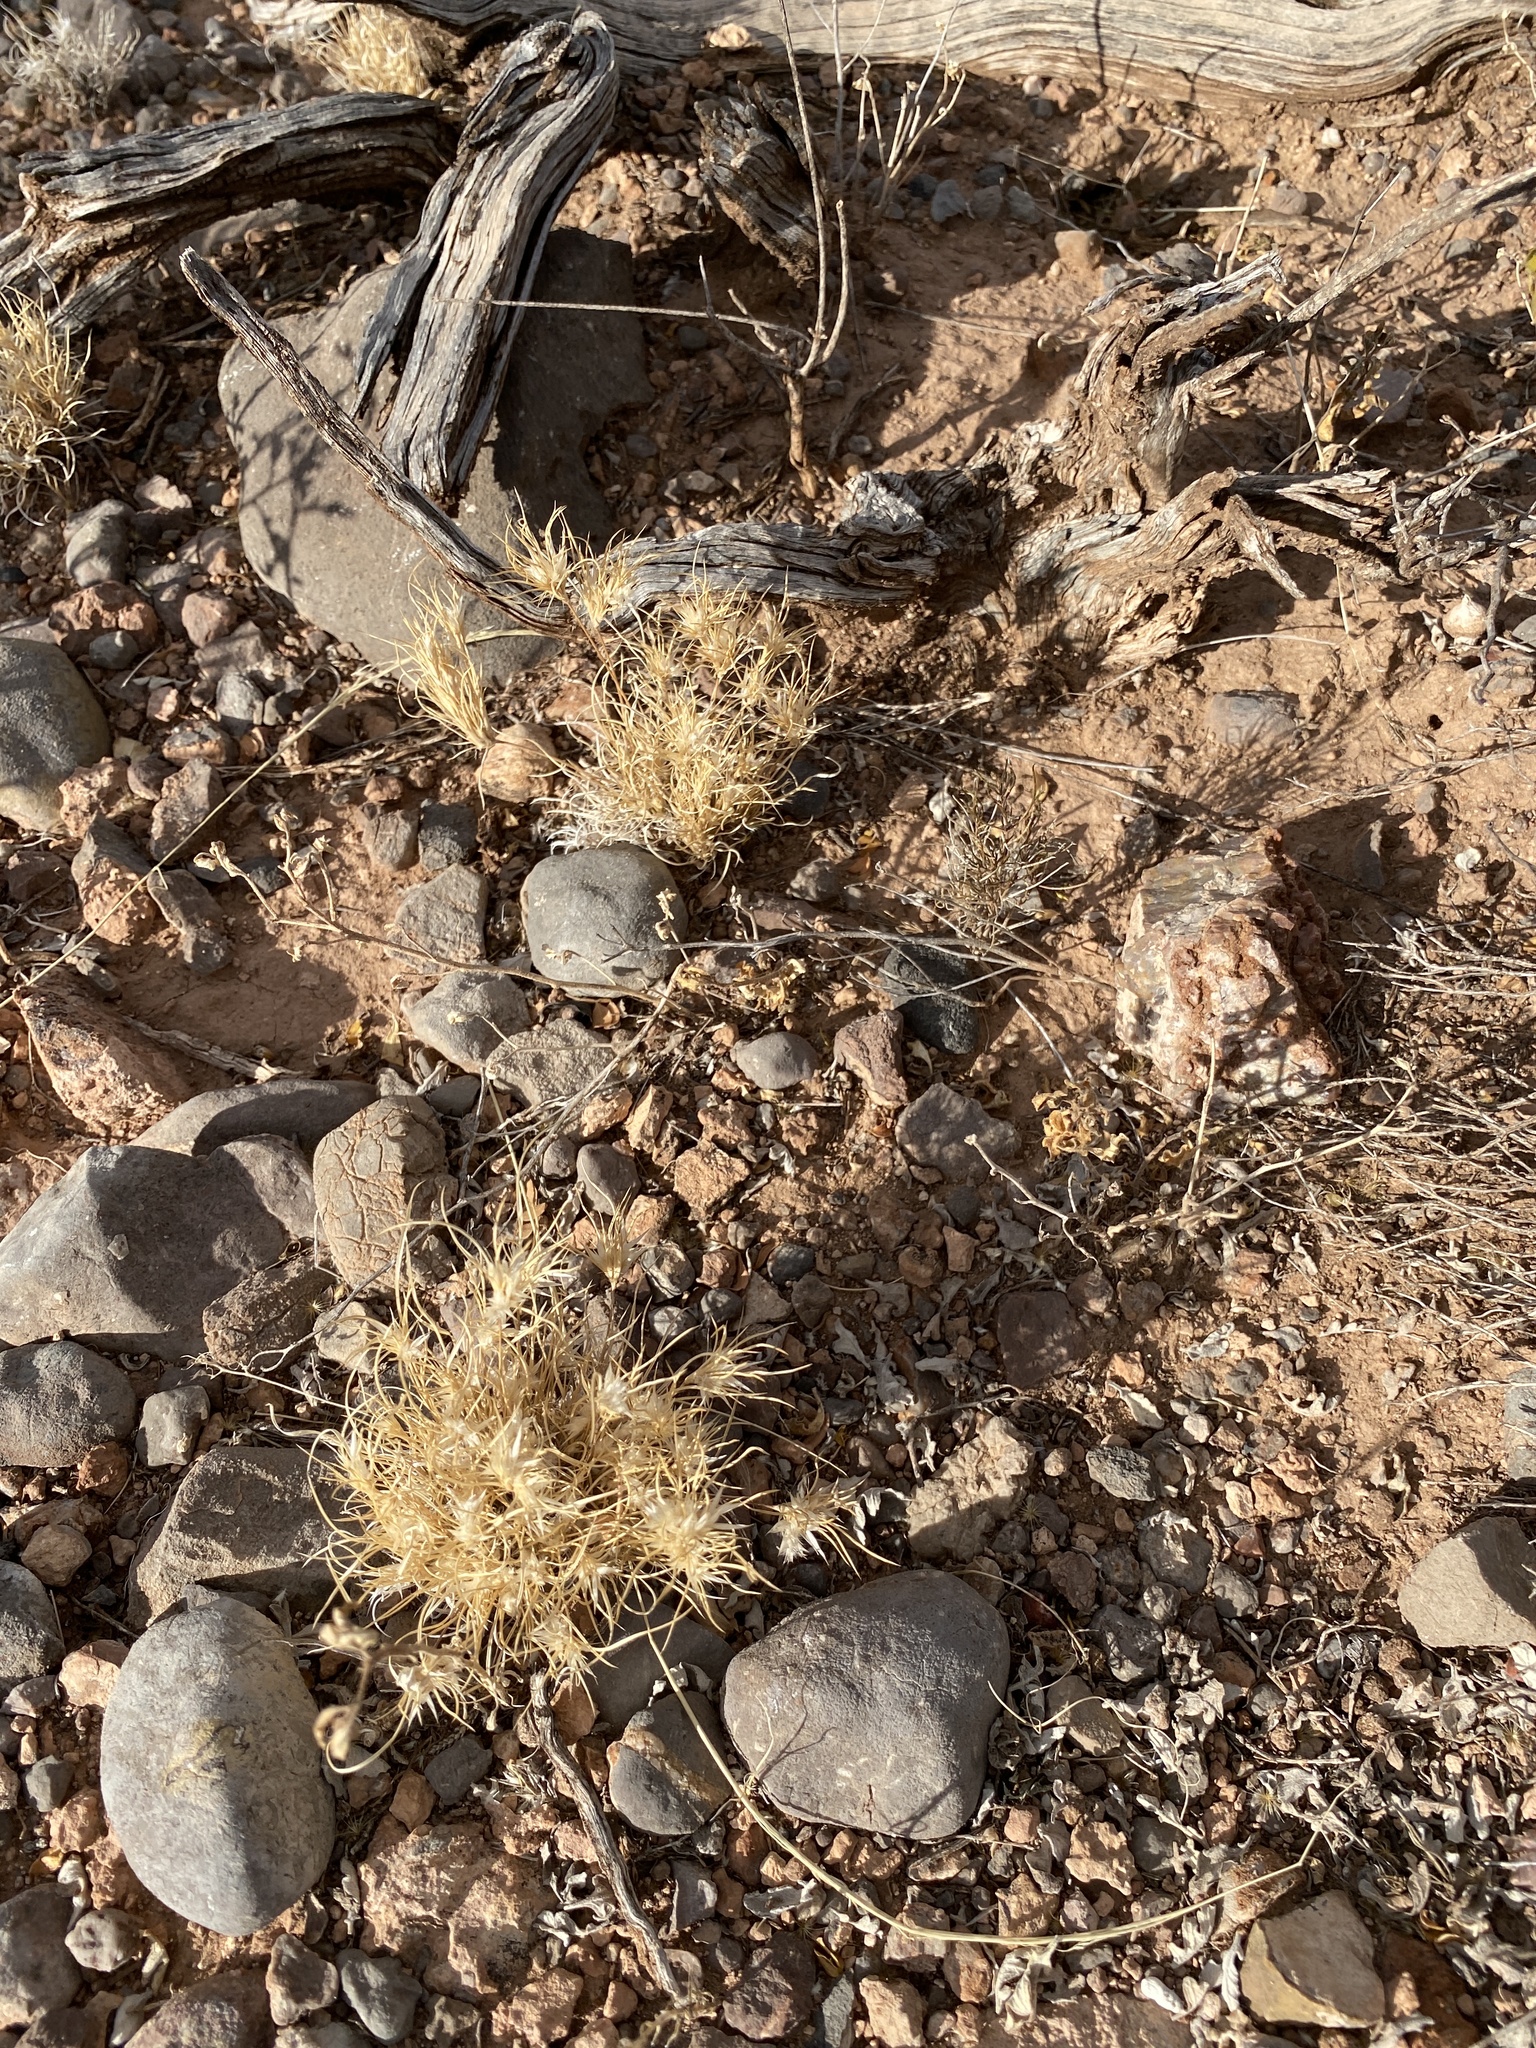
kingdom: Plantae
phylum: Tracheophyta
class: Liliopsida
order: Poales
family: Poaceae
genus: Dasyochloa
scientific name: Dasyochloa pulchella
